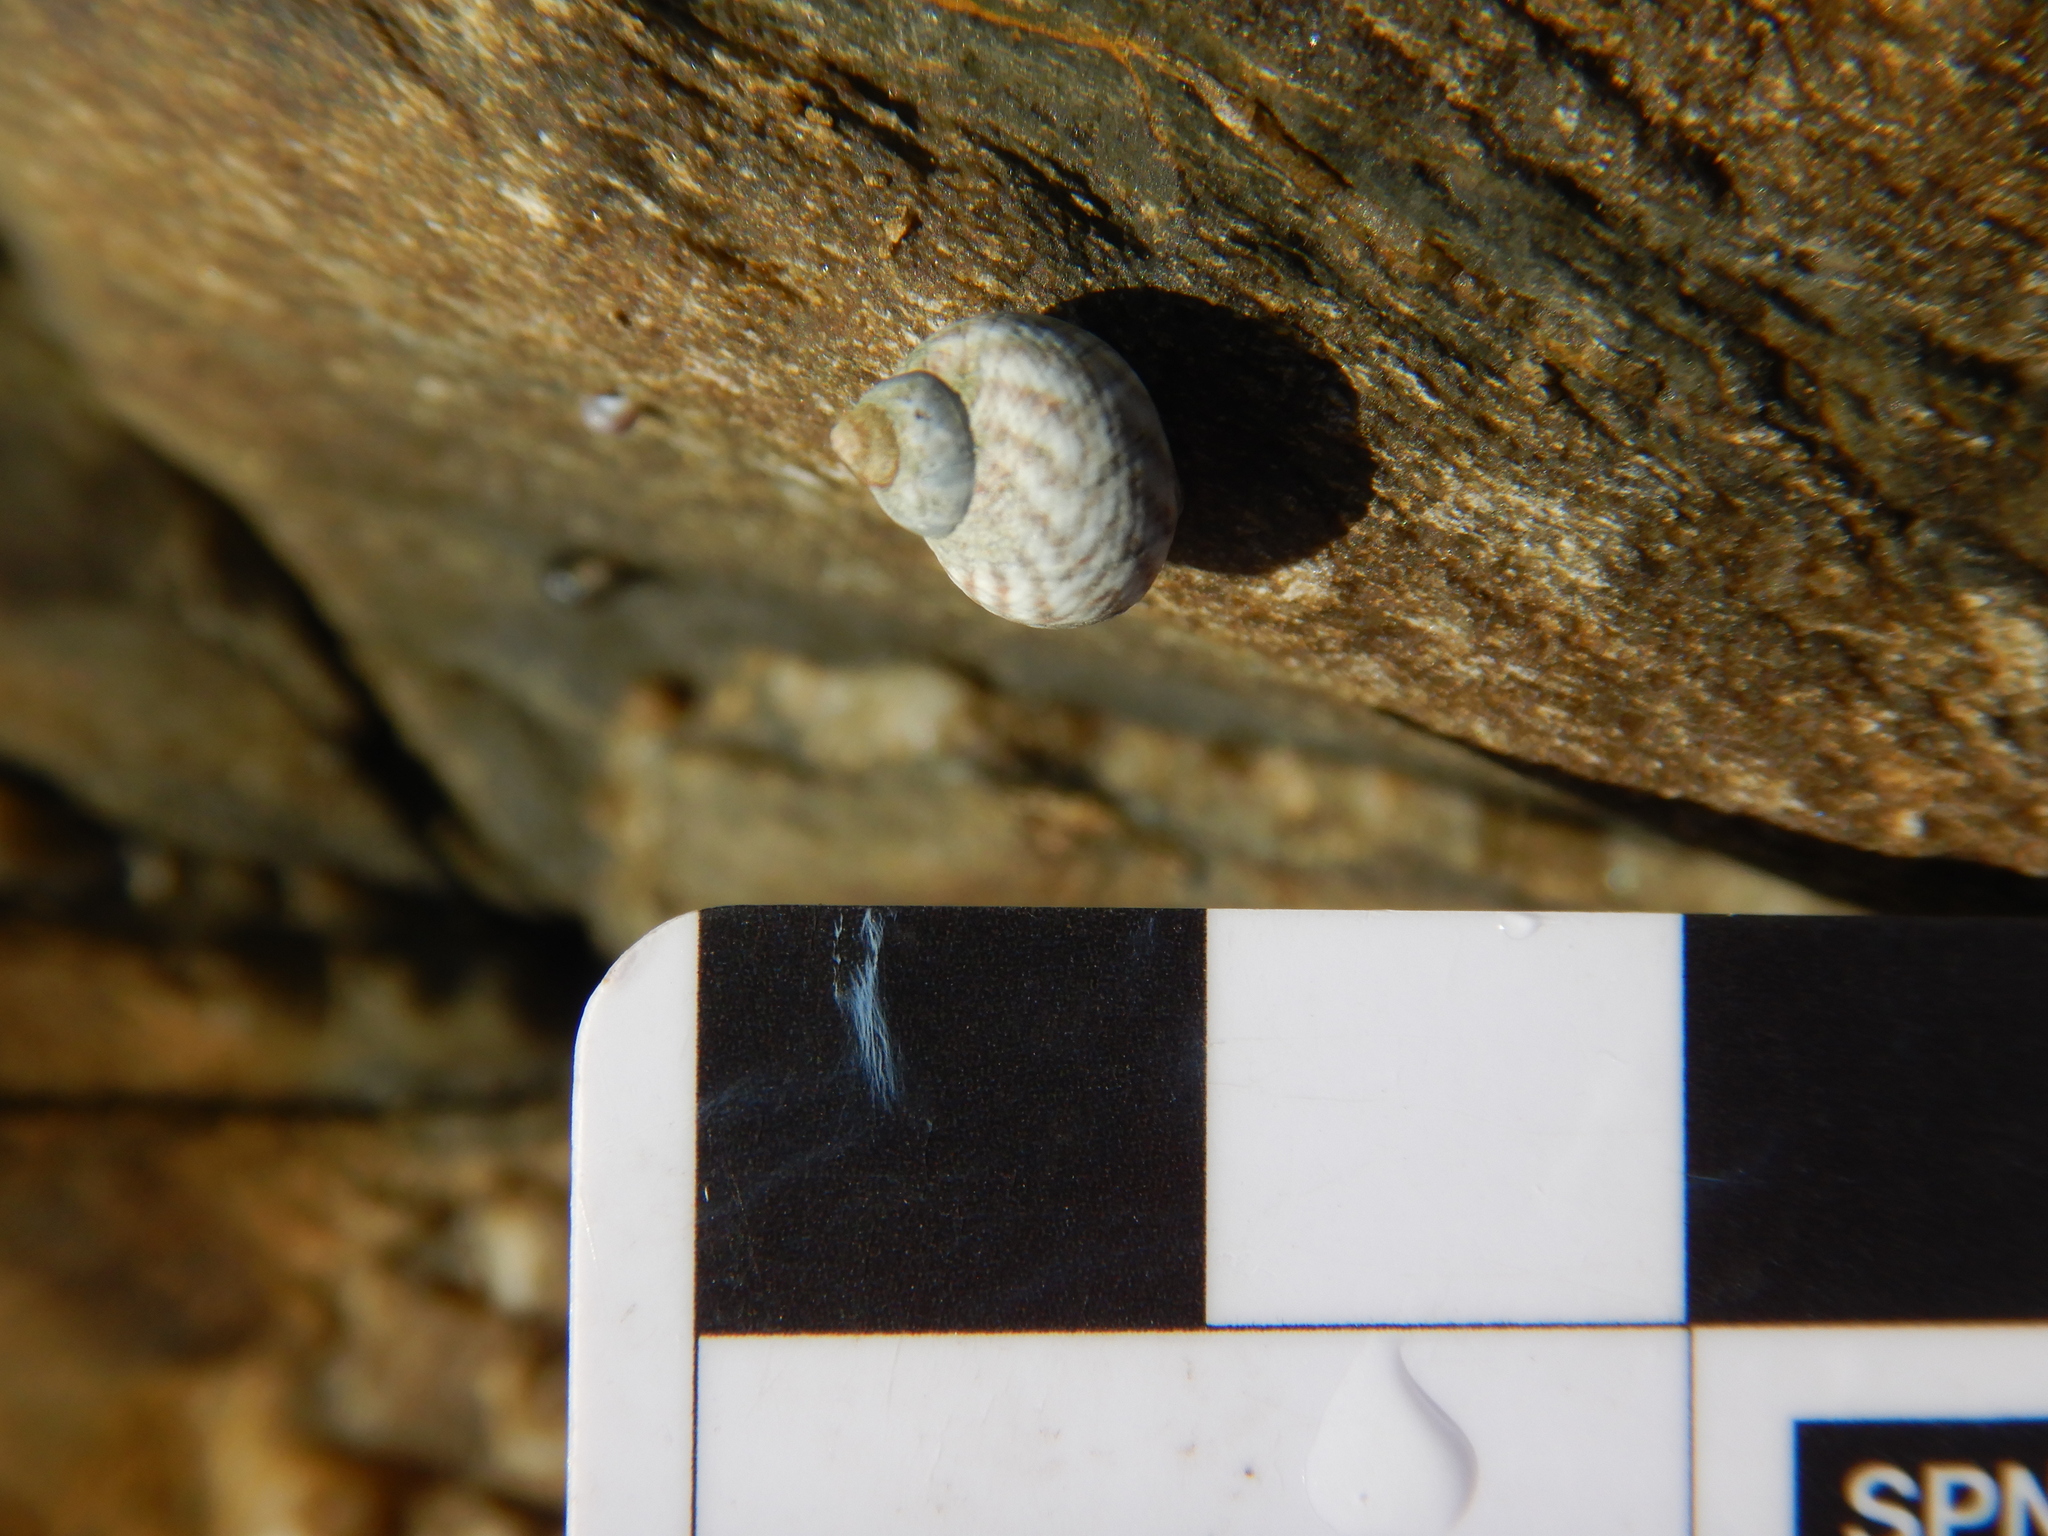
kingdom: Animalia
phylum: Mollusca
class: Gastropoda
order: Littorinimorpha
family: Littorinidae
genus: Afrolittorina
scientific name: Afrolittorina praetermissa
